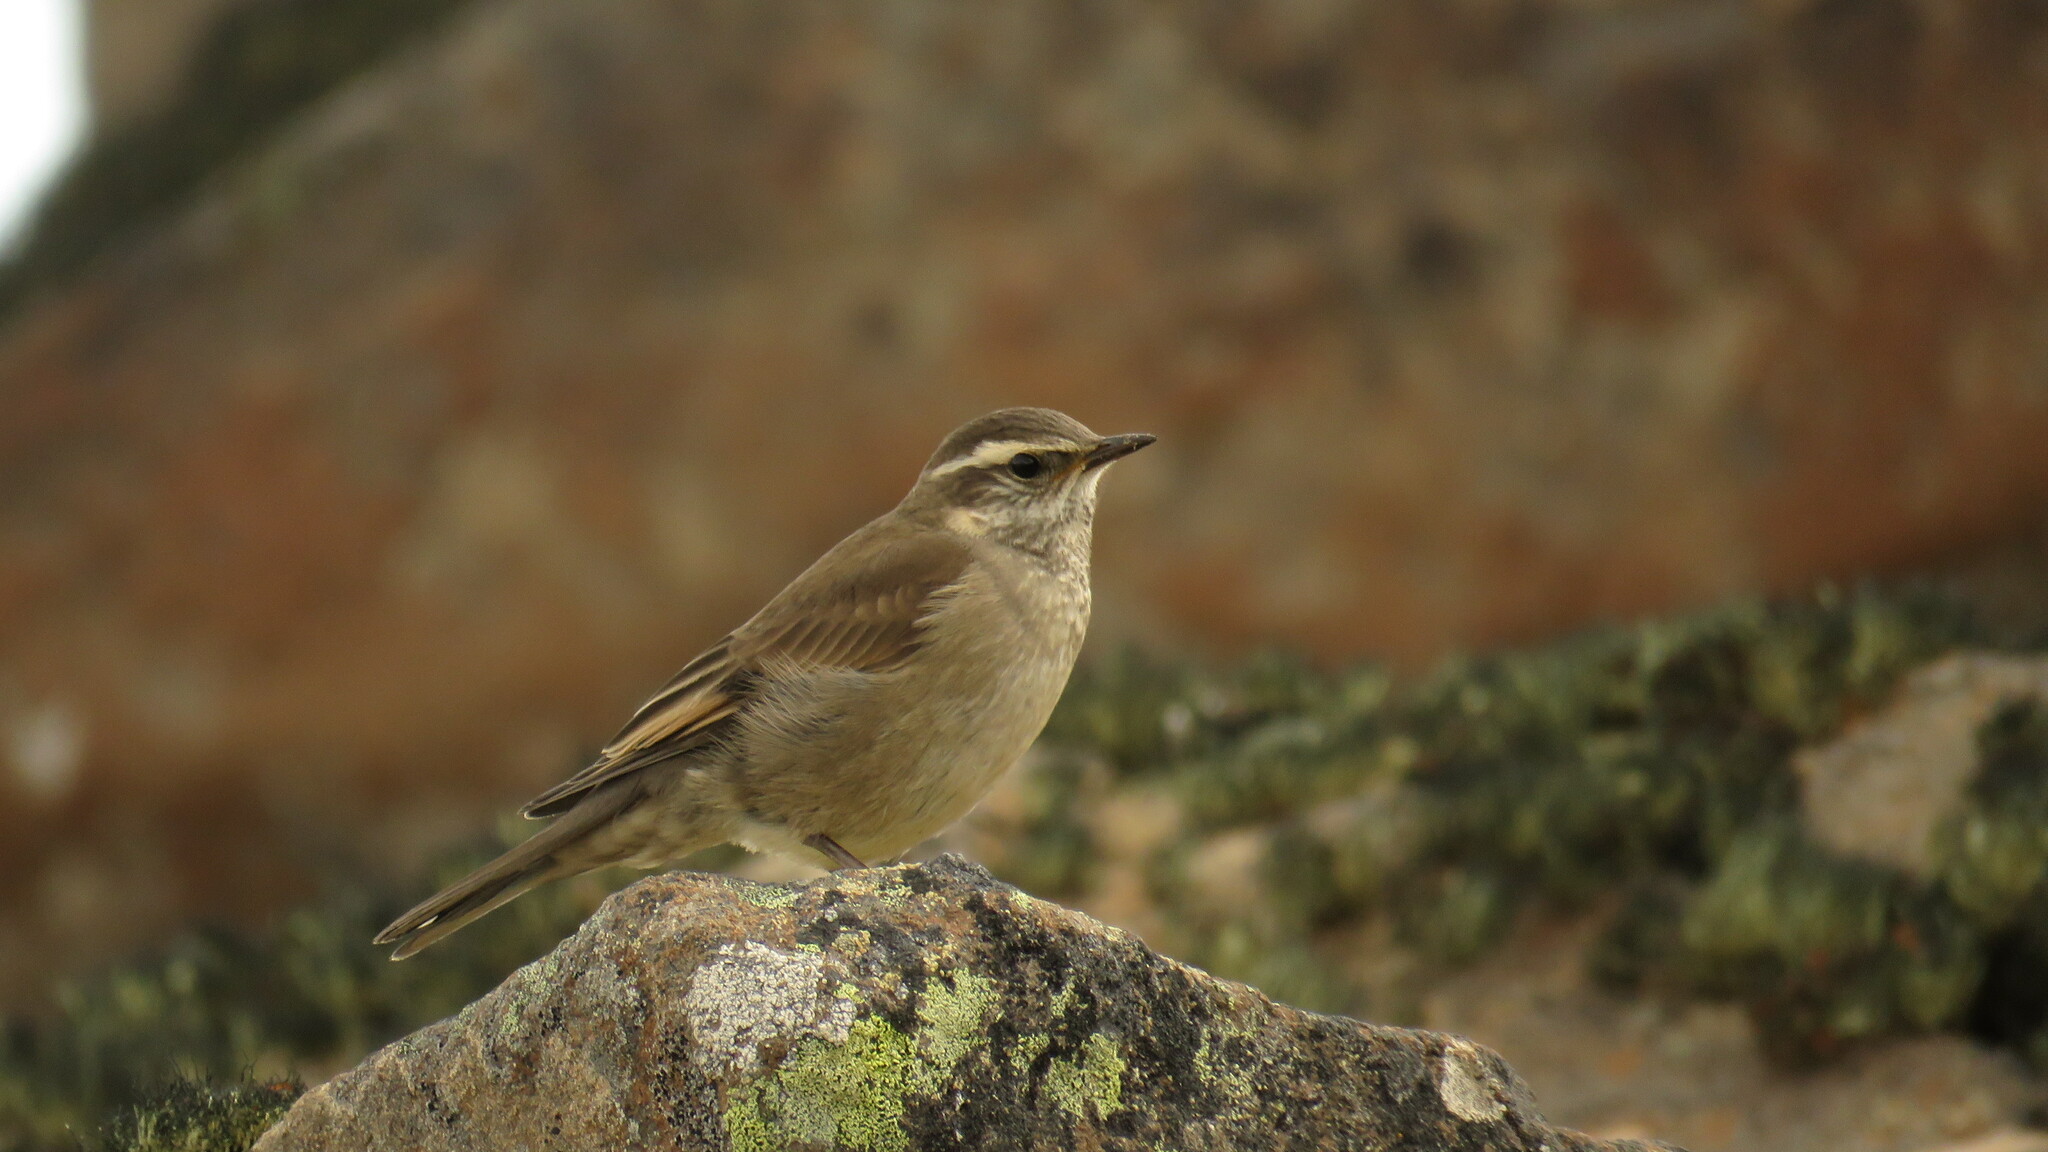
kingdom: Animalia
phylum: Chordata
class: Aves
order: Passeriformes
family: Furnariidae
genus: Cinclodes
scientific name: Cinclodes fuscus
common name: Buff-winged cinclodes
